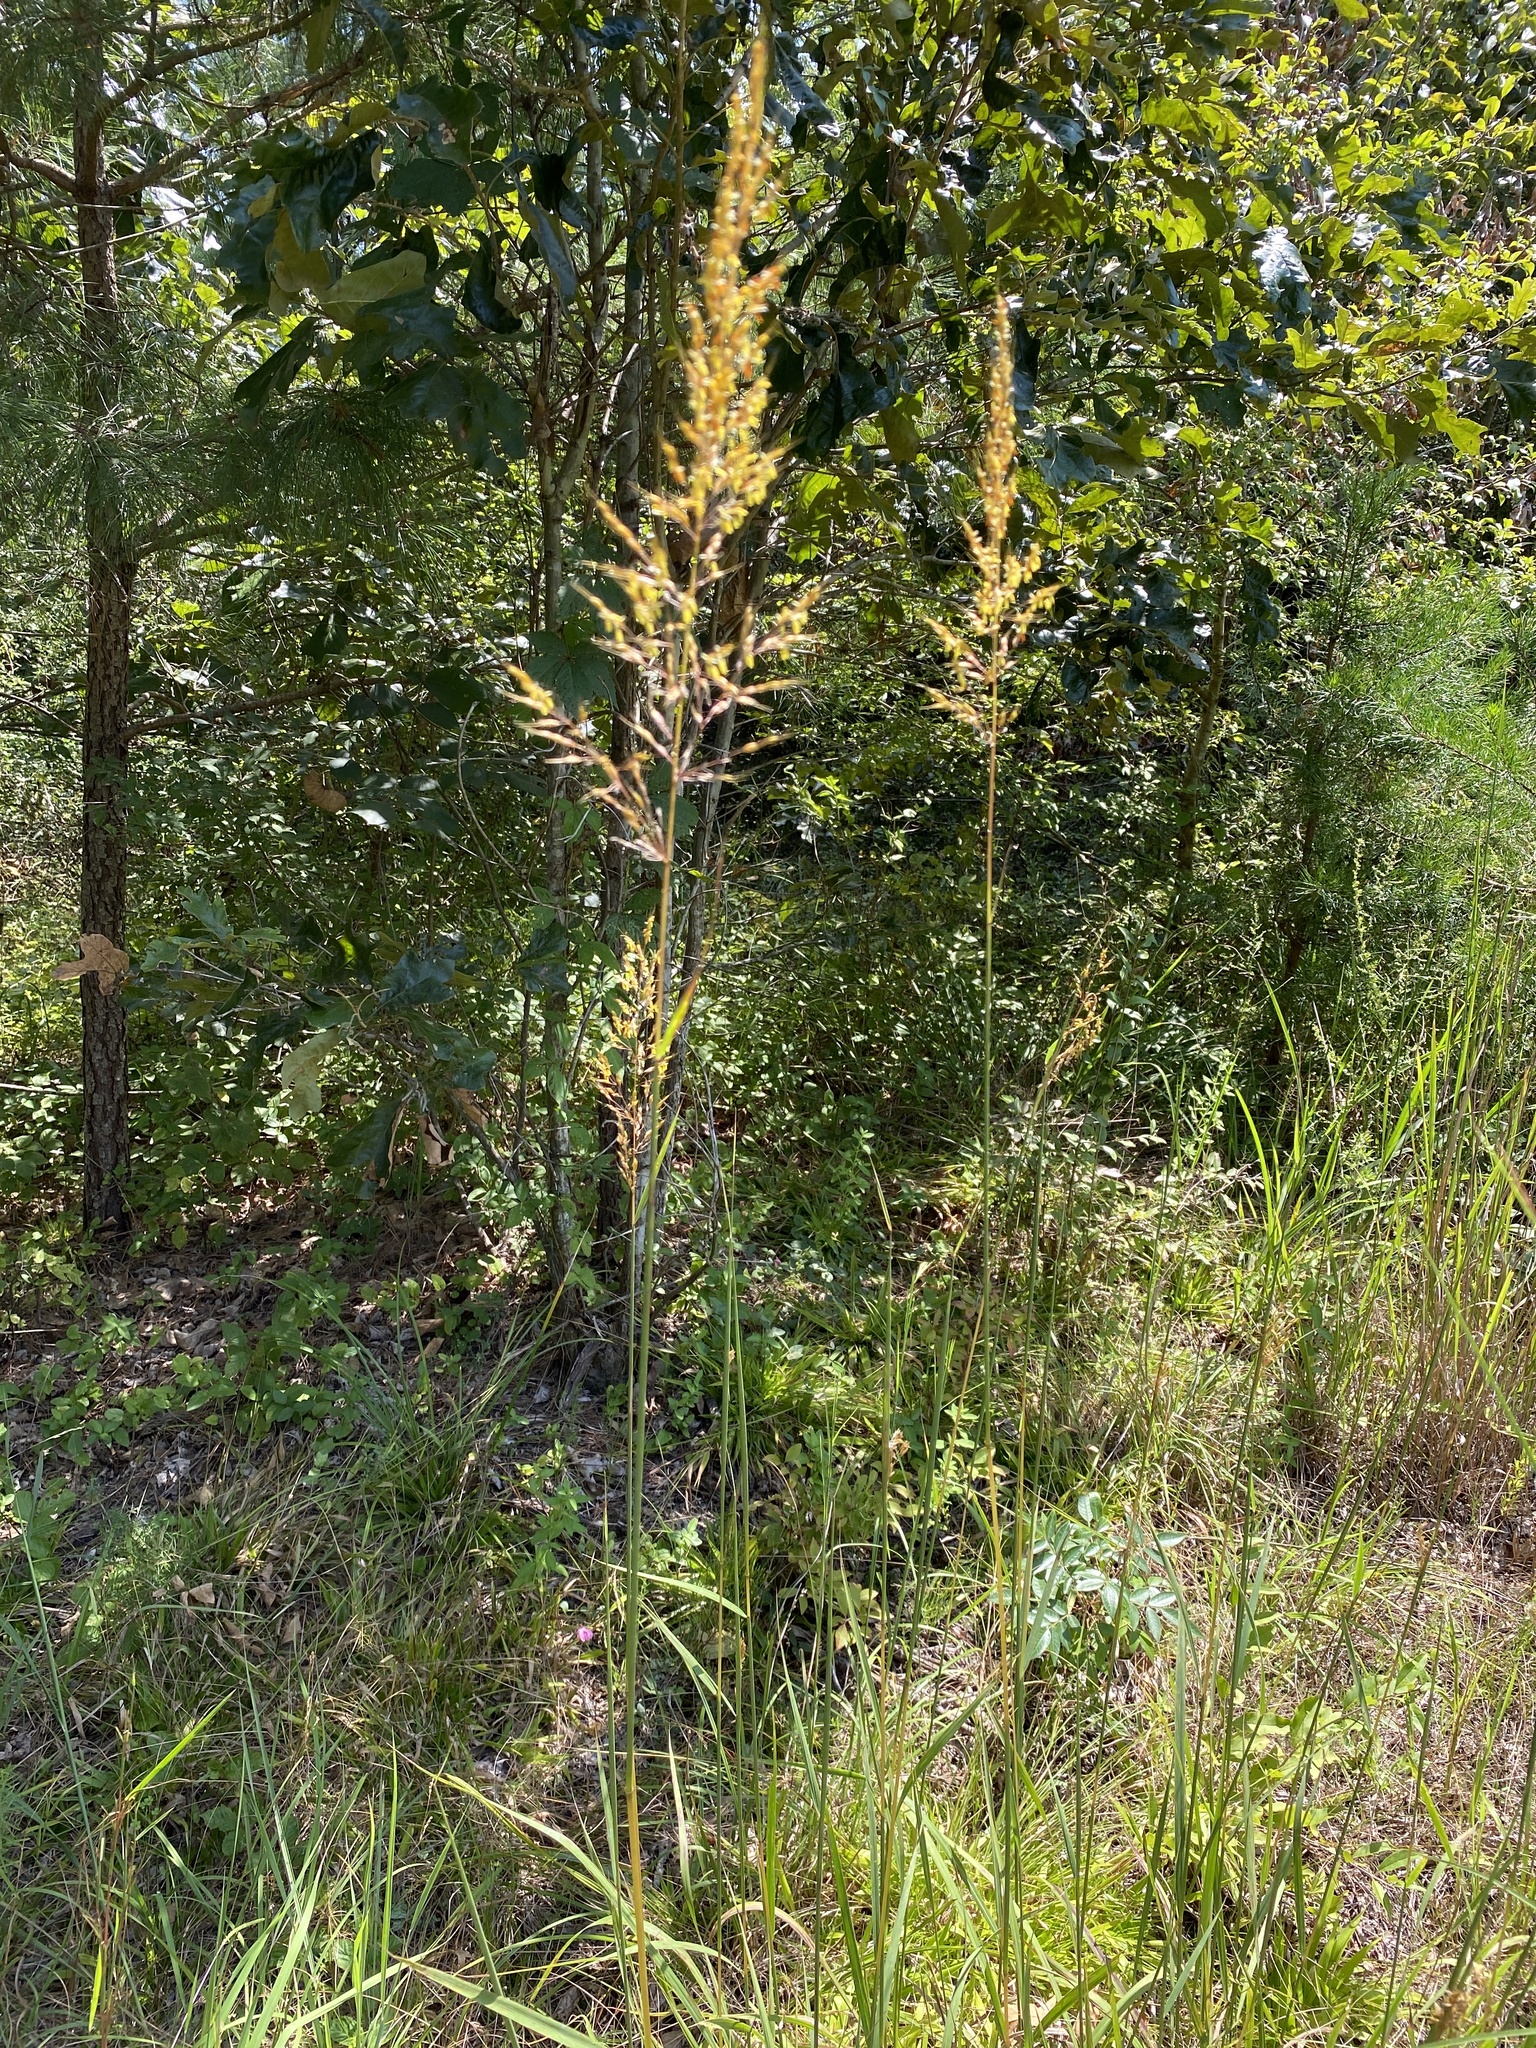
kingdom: Plantae
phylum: Tracheophyta
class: Liliopsida
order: Poales
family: Poaceae
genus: Sorghastrum
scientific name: Sorghastrum nutans
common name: Indian grass
